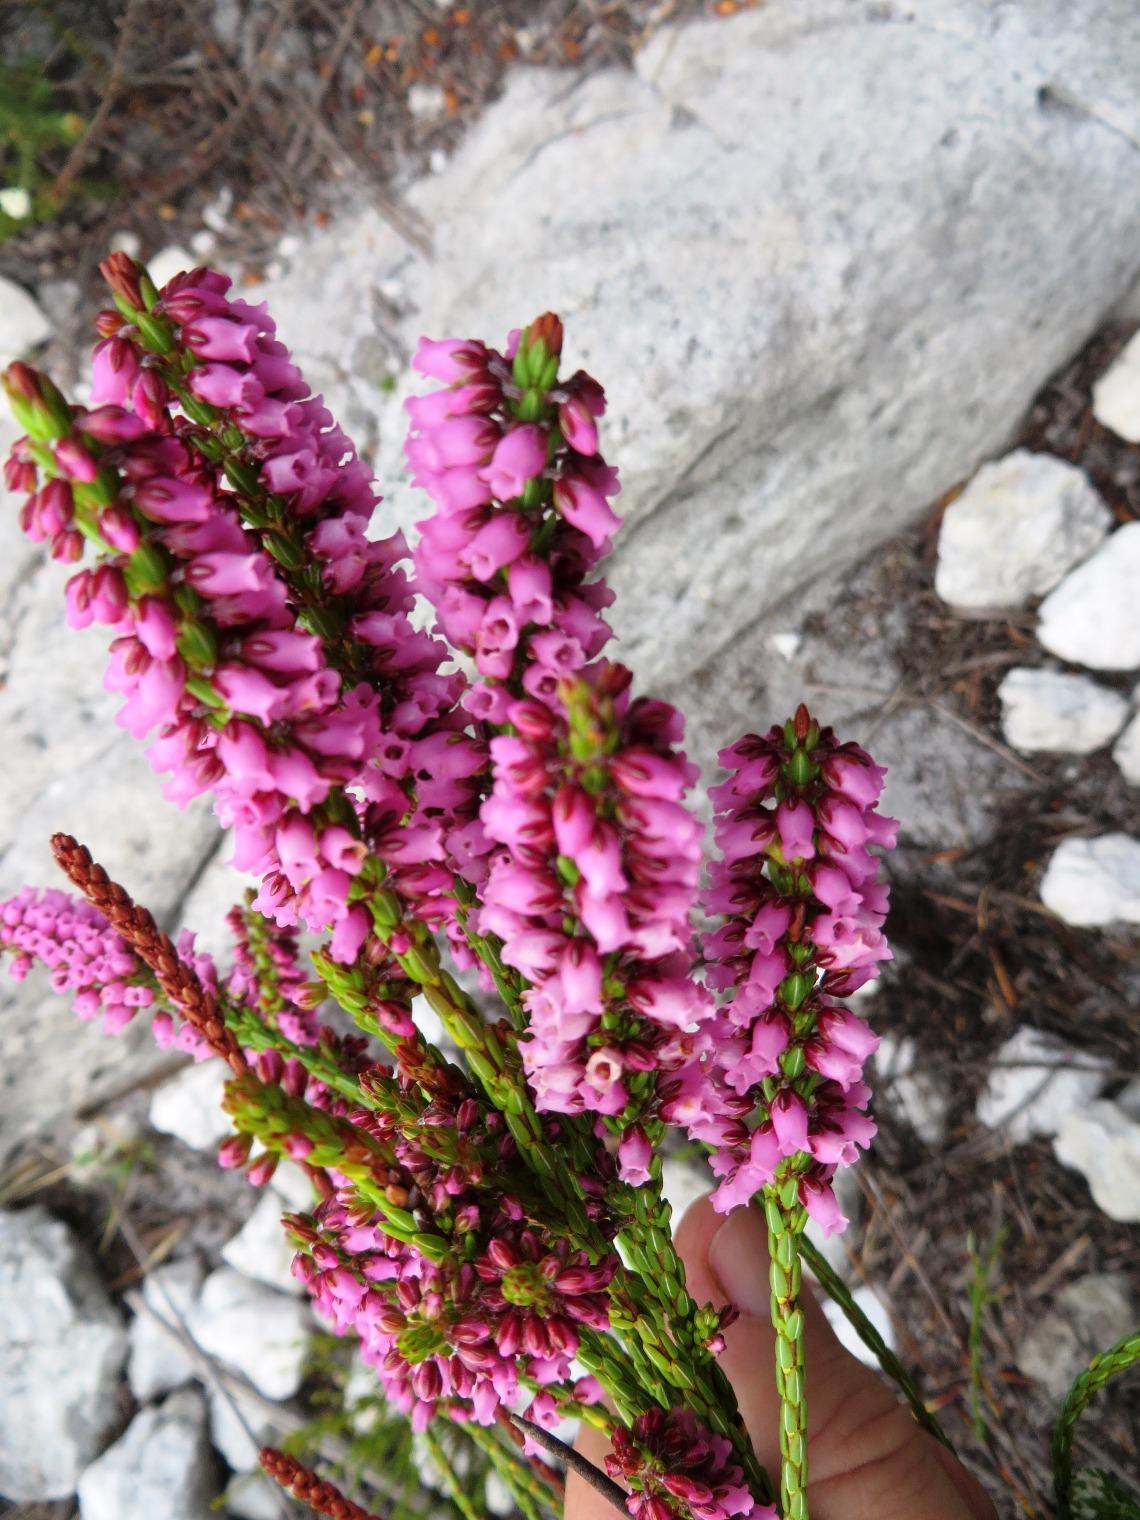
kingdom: Plantae
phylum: Tracheophyta
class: Magnoliopsida
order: Ericales
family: Ericaceae
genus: Erica
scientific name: Erica pulchella
